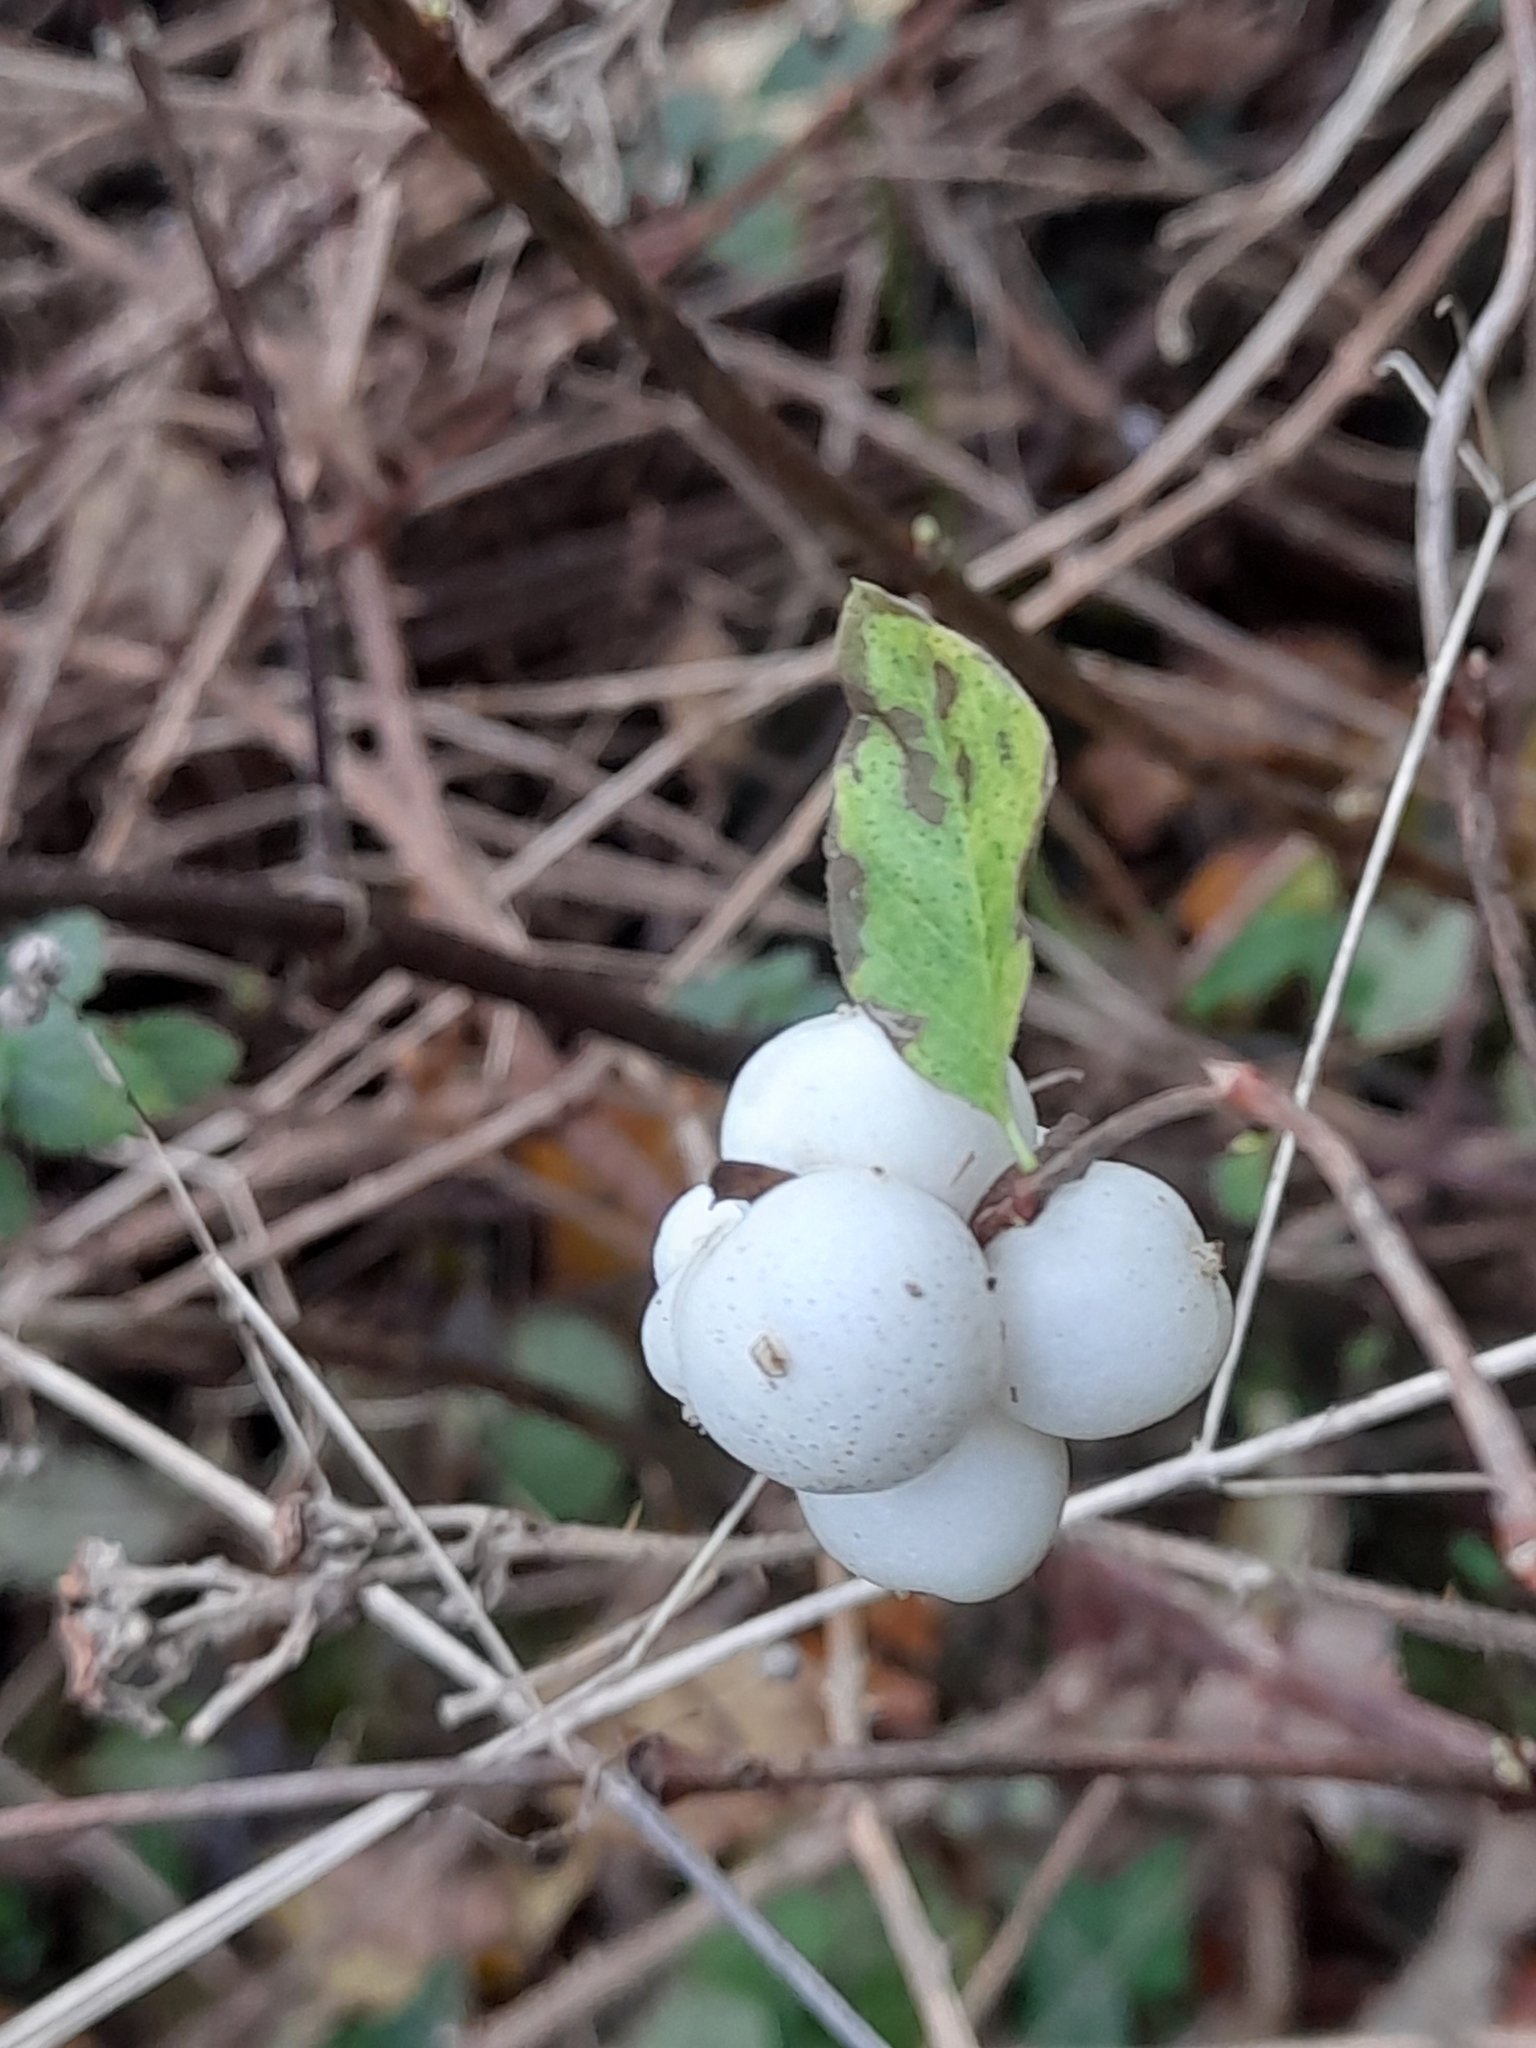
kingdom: Plantae
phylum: Tracheophyta
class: Magnoliopsida
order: Dipsacales
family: Caprifoliaceae
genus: Symphoricarpos
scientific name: Symphoricarpos albus
